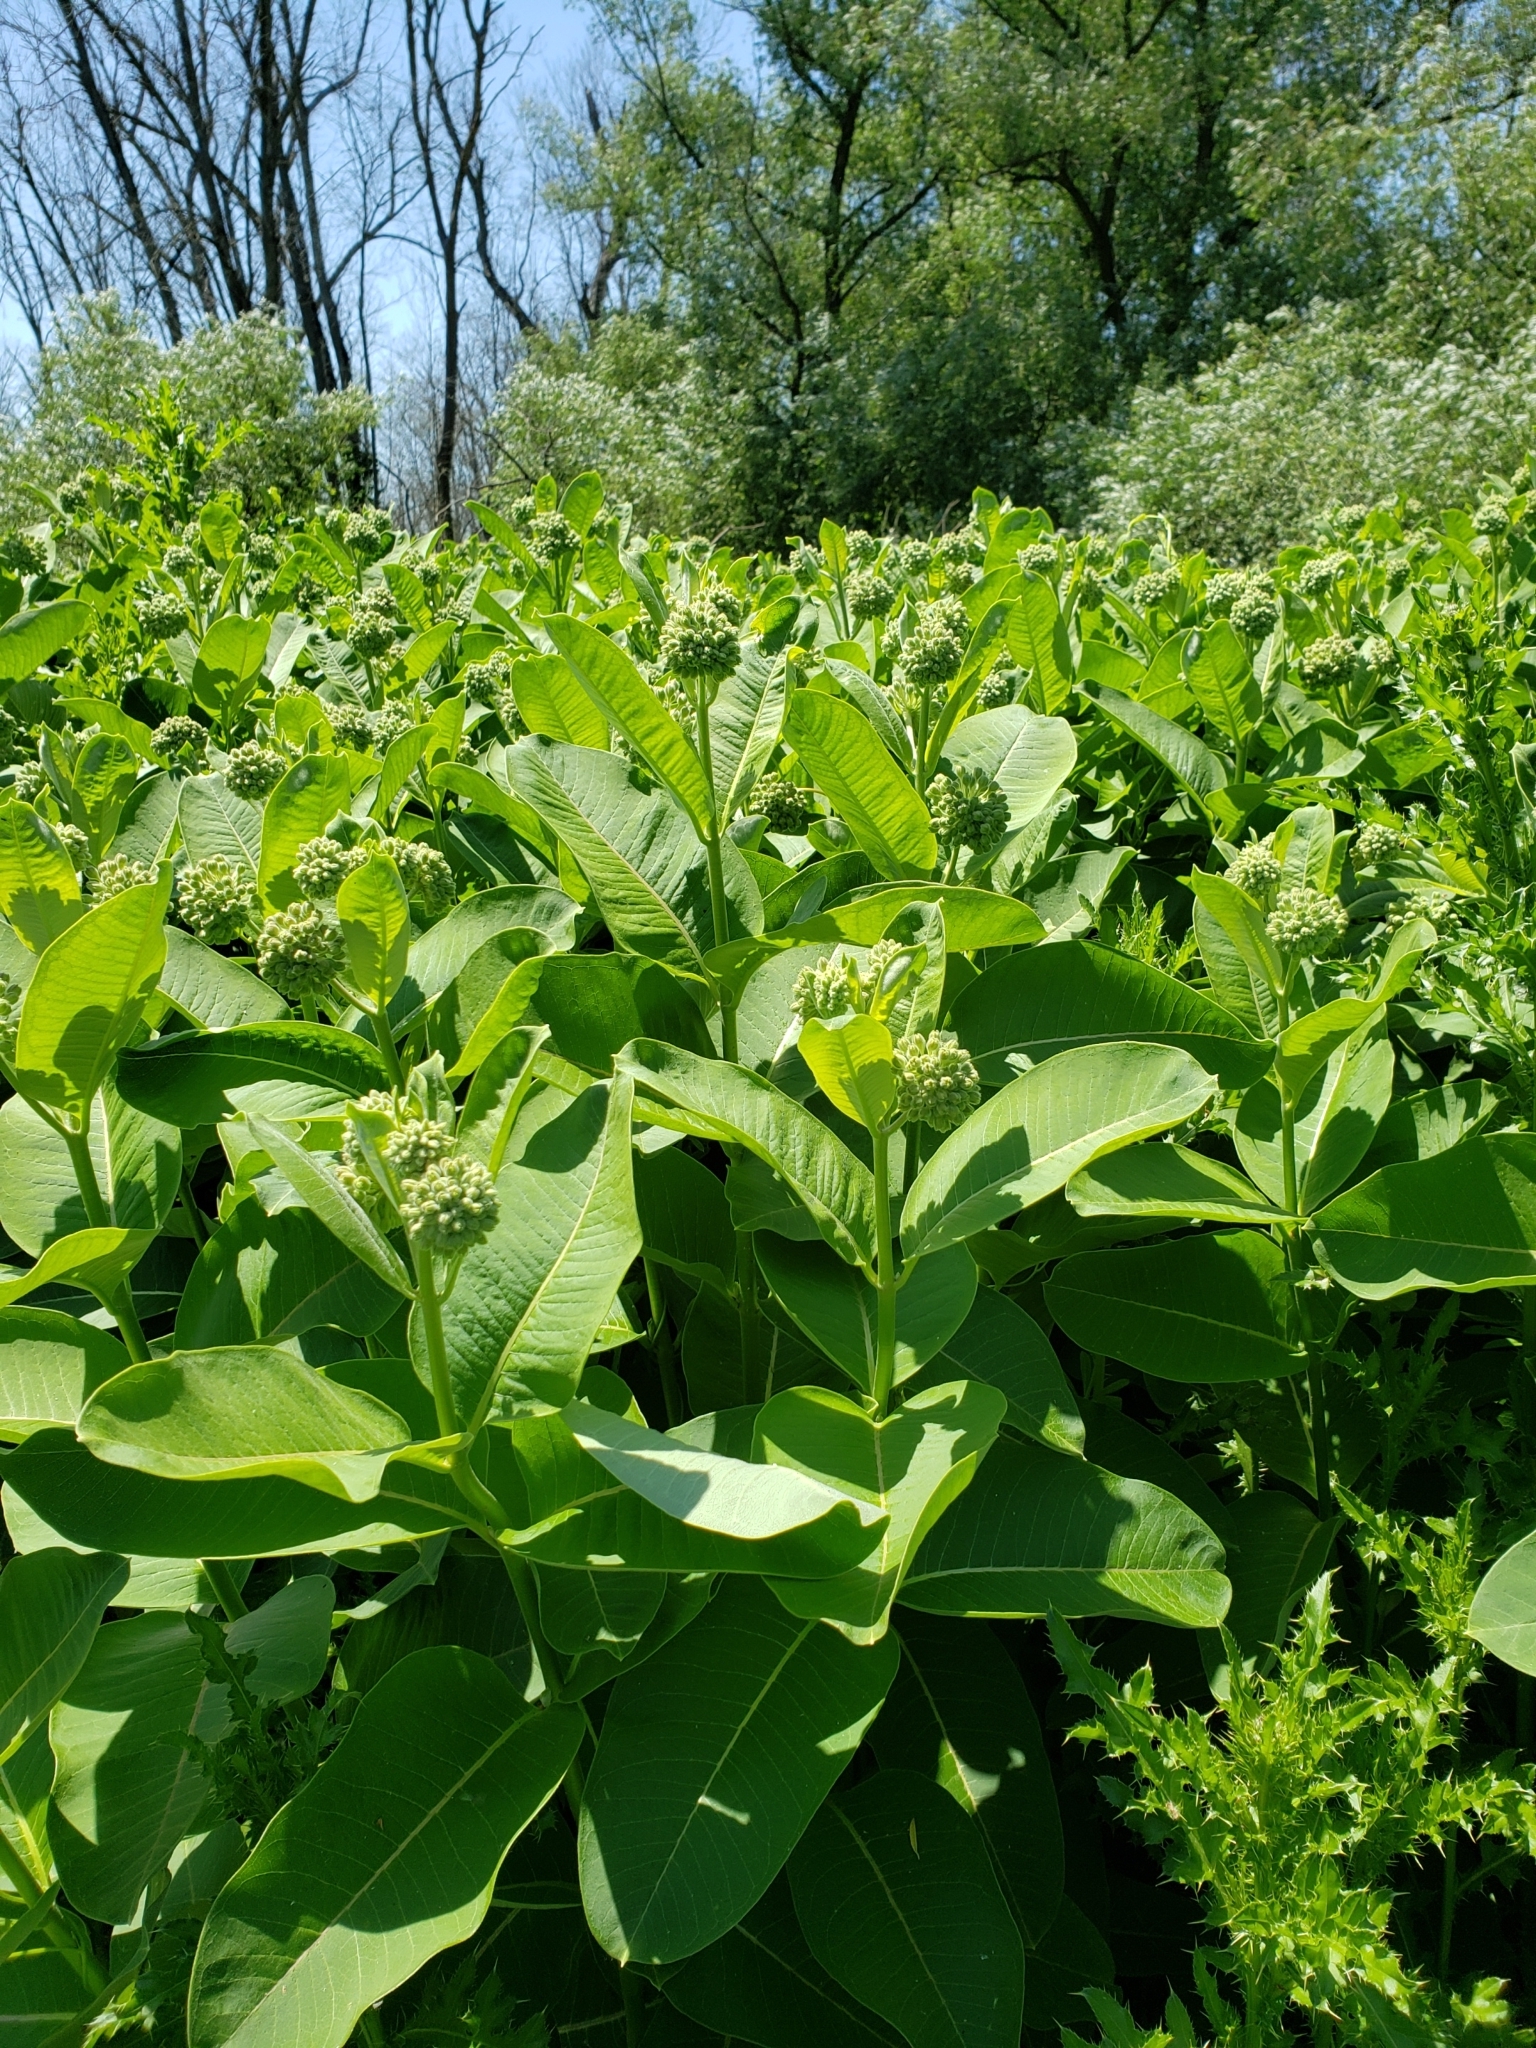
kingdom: Plantae
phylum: Tracheophyta
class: Magnoliopsida
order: Gentianales
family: Apocynaceae
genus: Asclepias
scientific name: Asclepias syriaca
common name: Common milkweed
